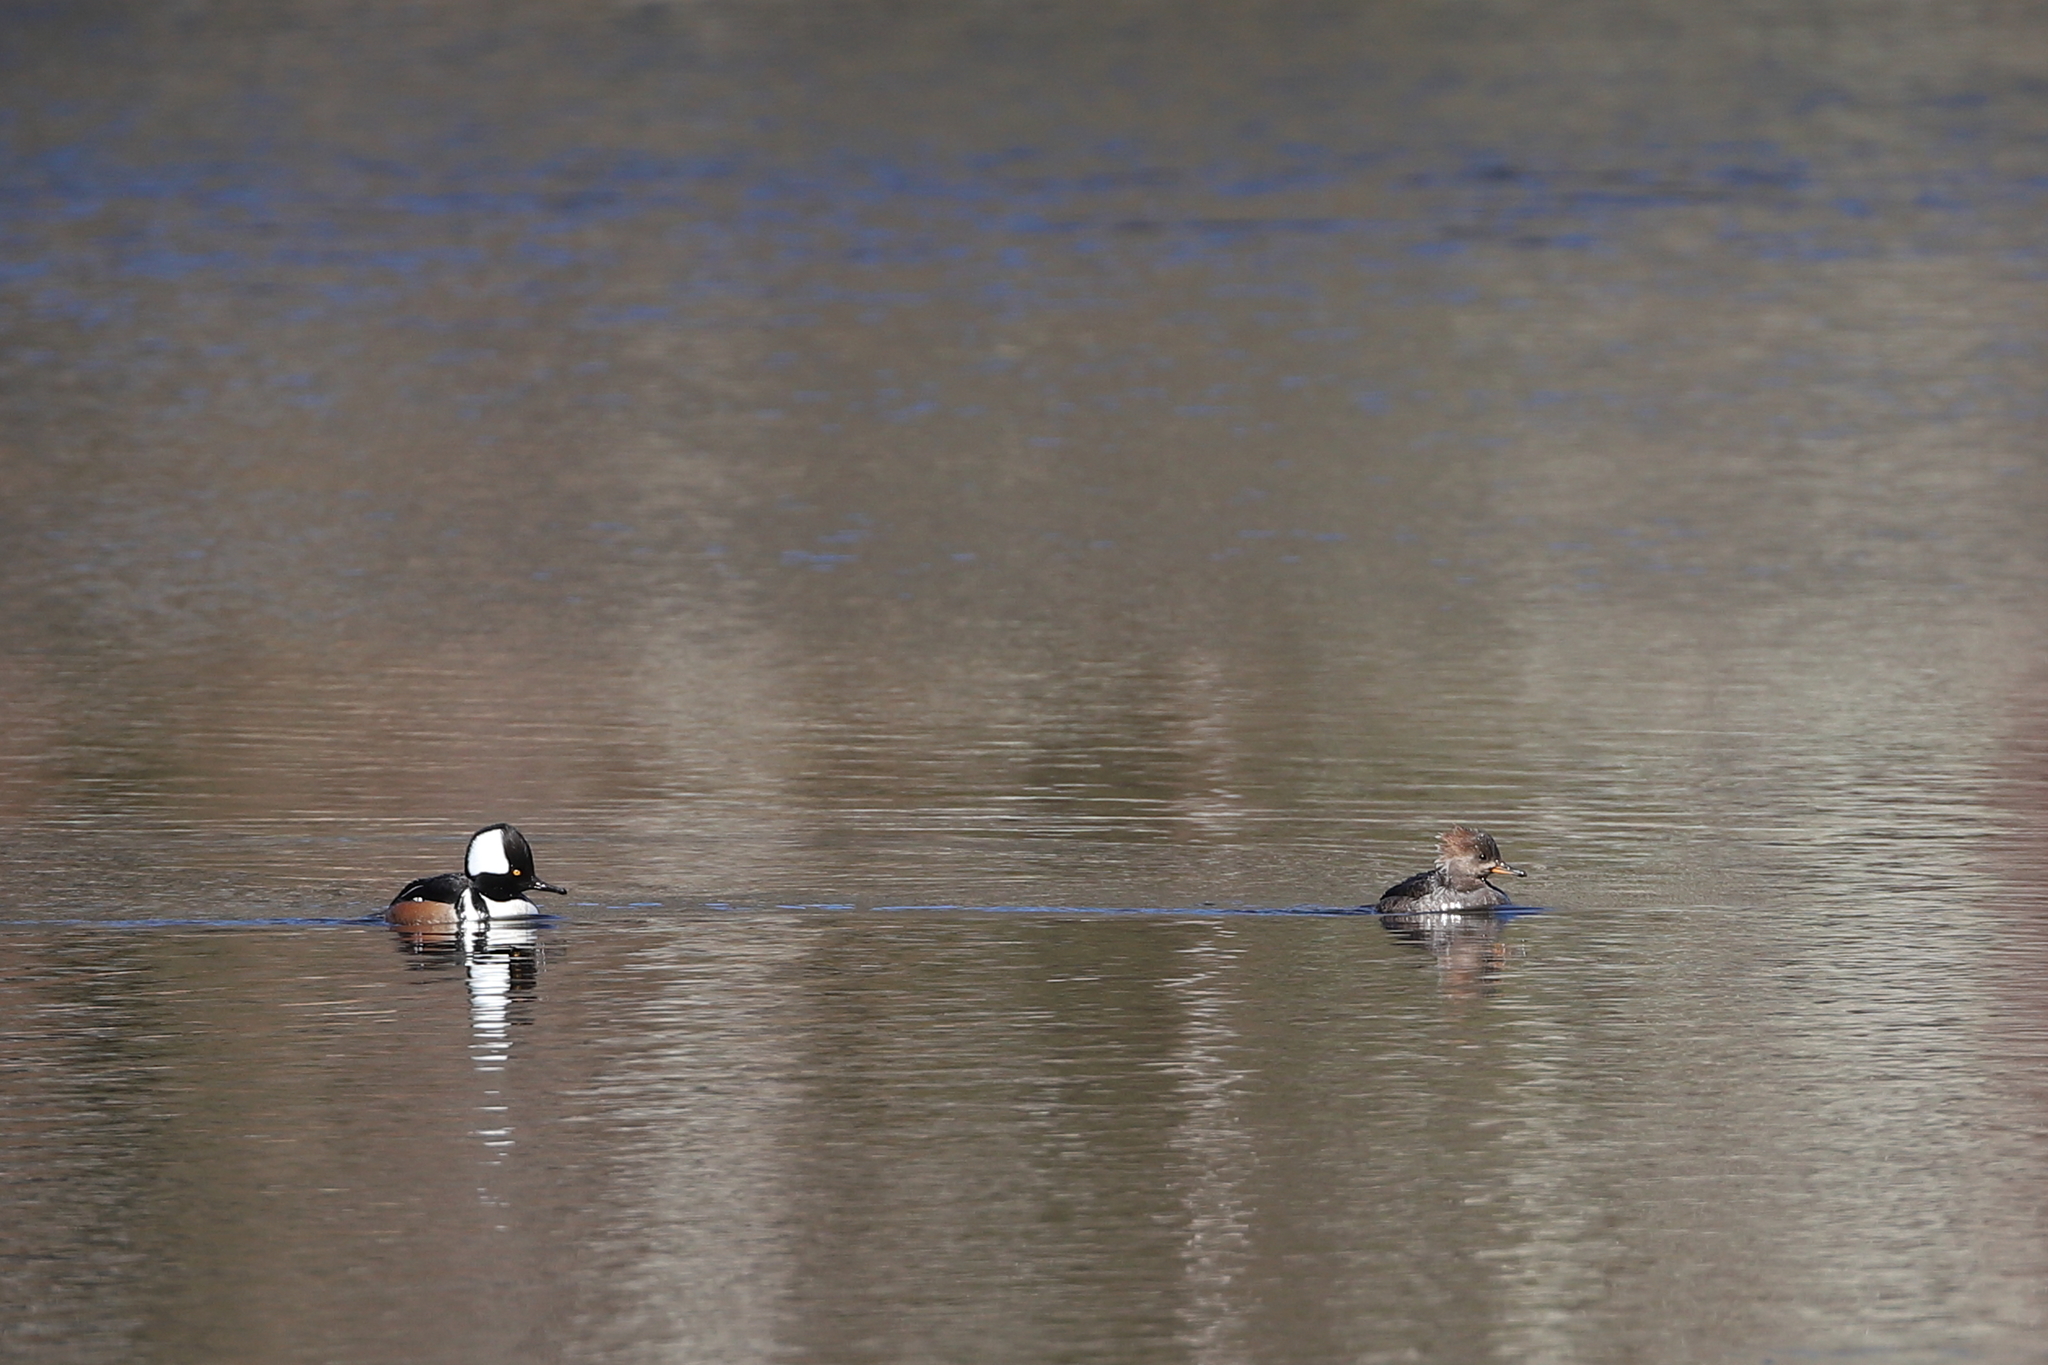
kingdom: Animalia
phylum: Chordata
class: Aves
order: Anseriformes
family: Anatidae
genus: Lophodytes
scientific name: Lophodytes cucullatus
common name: Hooded merganser
